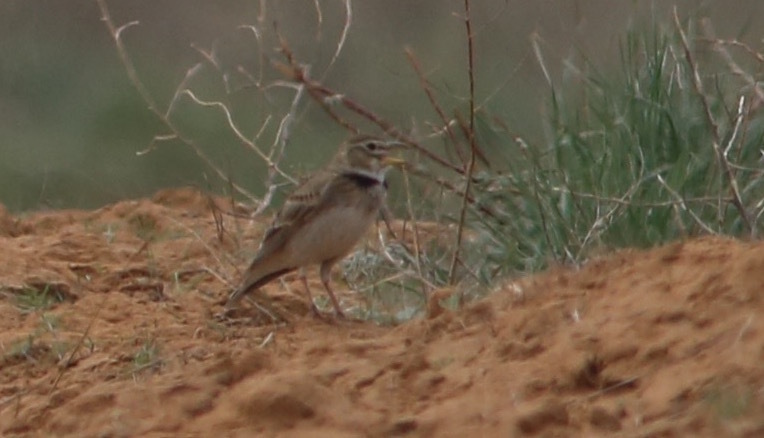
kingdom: Animalia
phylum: Chordata
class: Aves
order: Passeriformes
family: Alaudidae
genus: Melanocorypha
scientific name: Melanocorypha calandra
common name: Calandra lark
